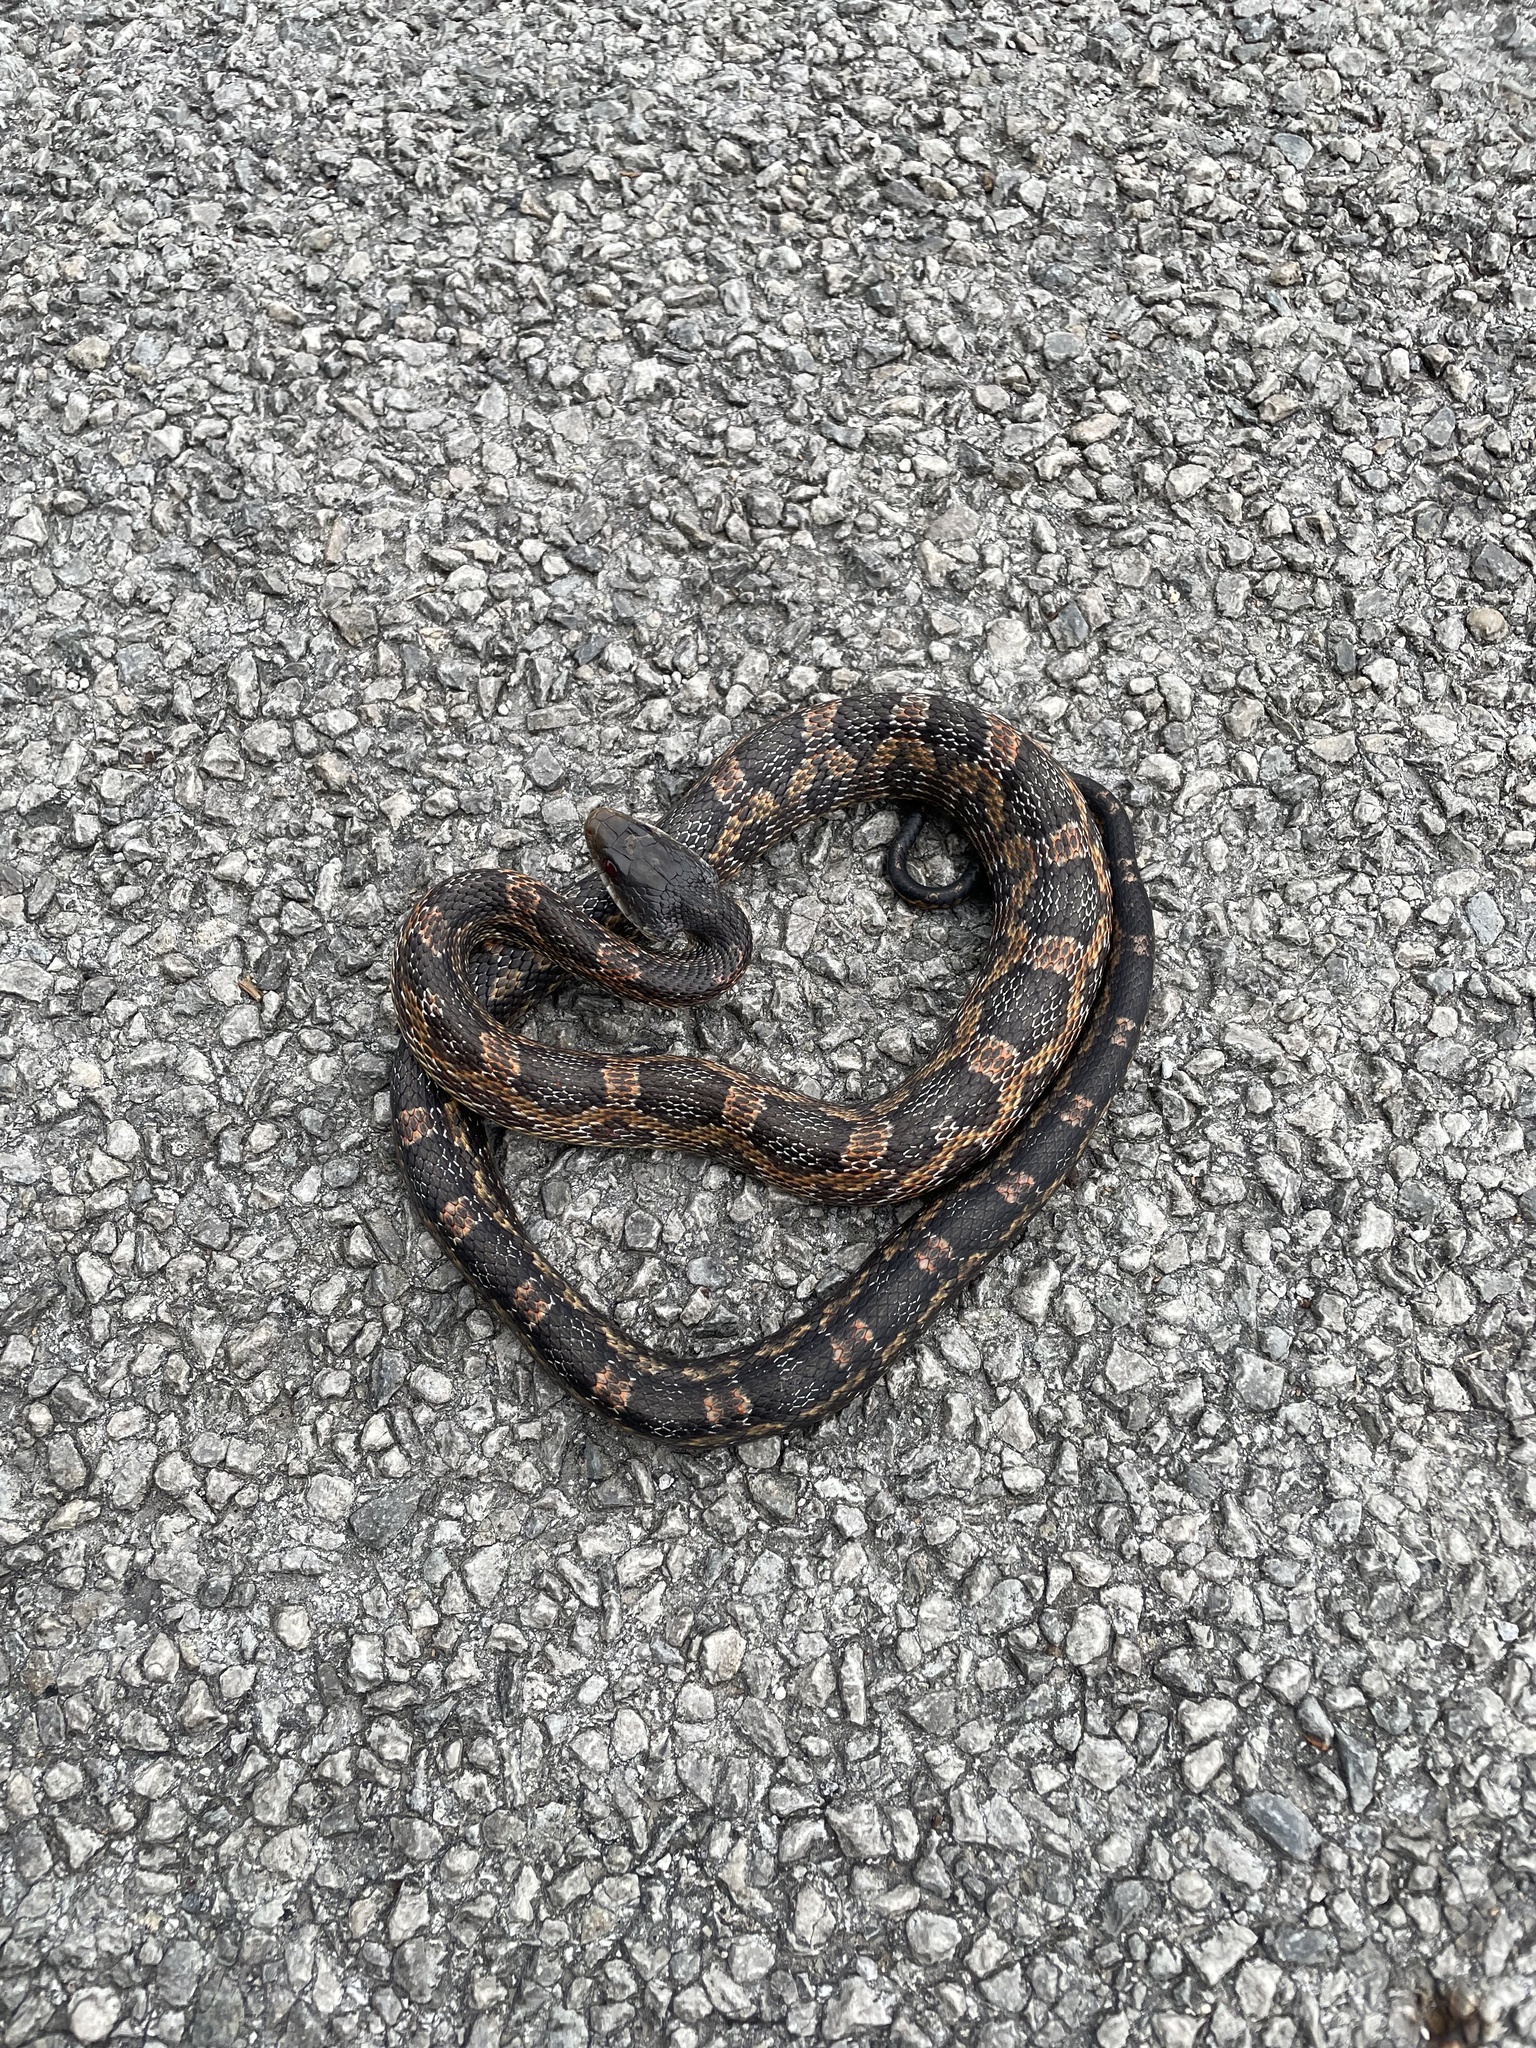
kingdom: Animalia
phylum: Chordata
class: Squamata
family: Colubridae
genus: Pantherophis
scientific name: Pantherophis obsoletus
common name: Black rat snake
